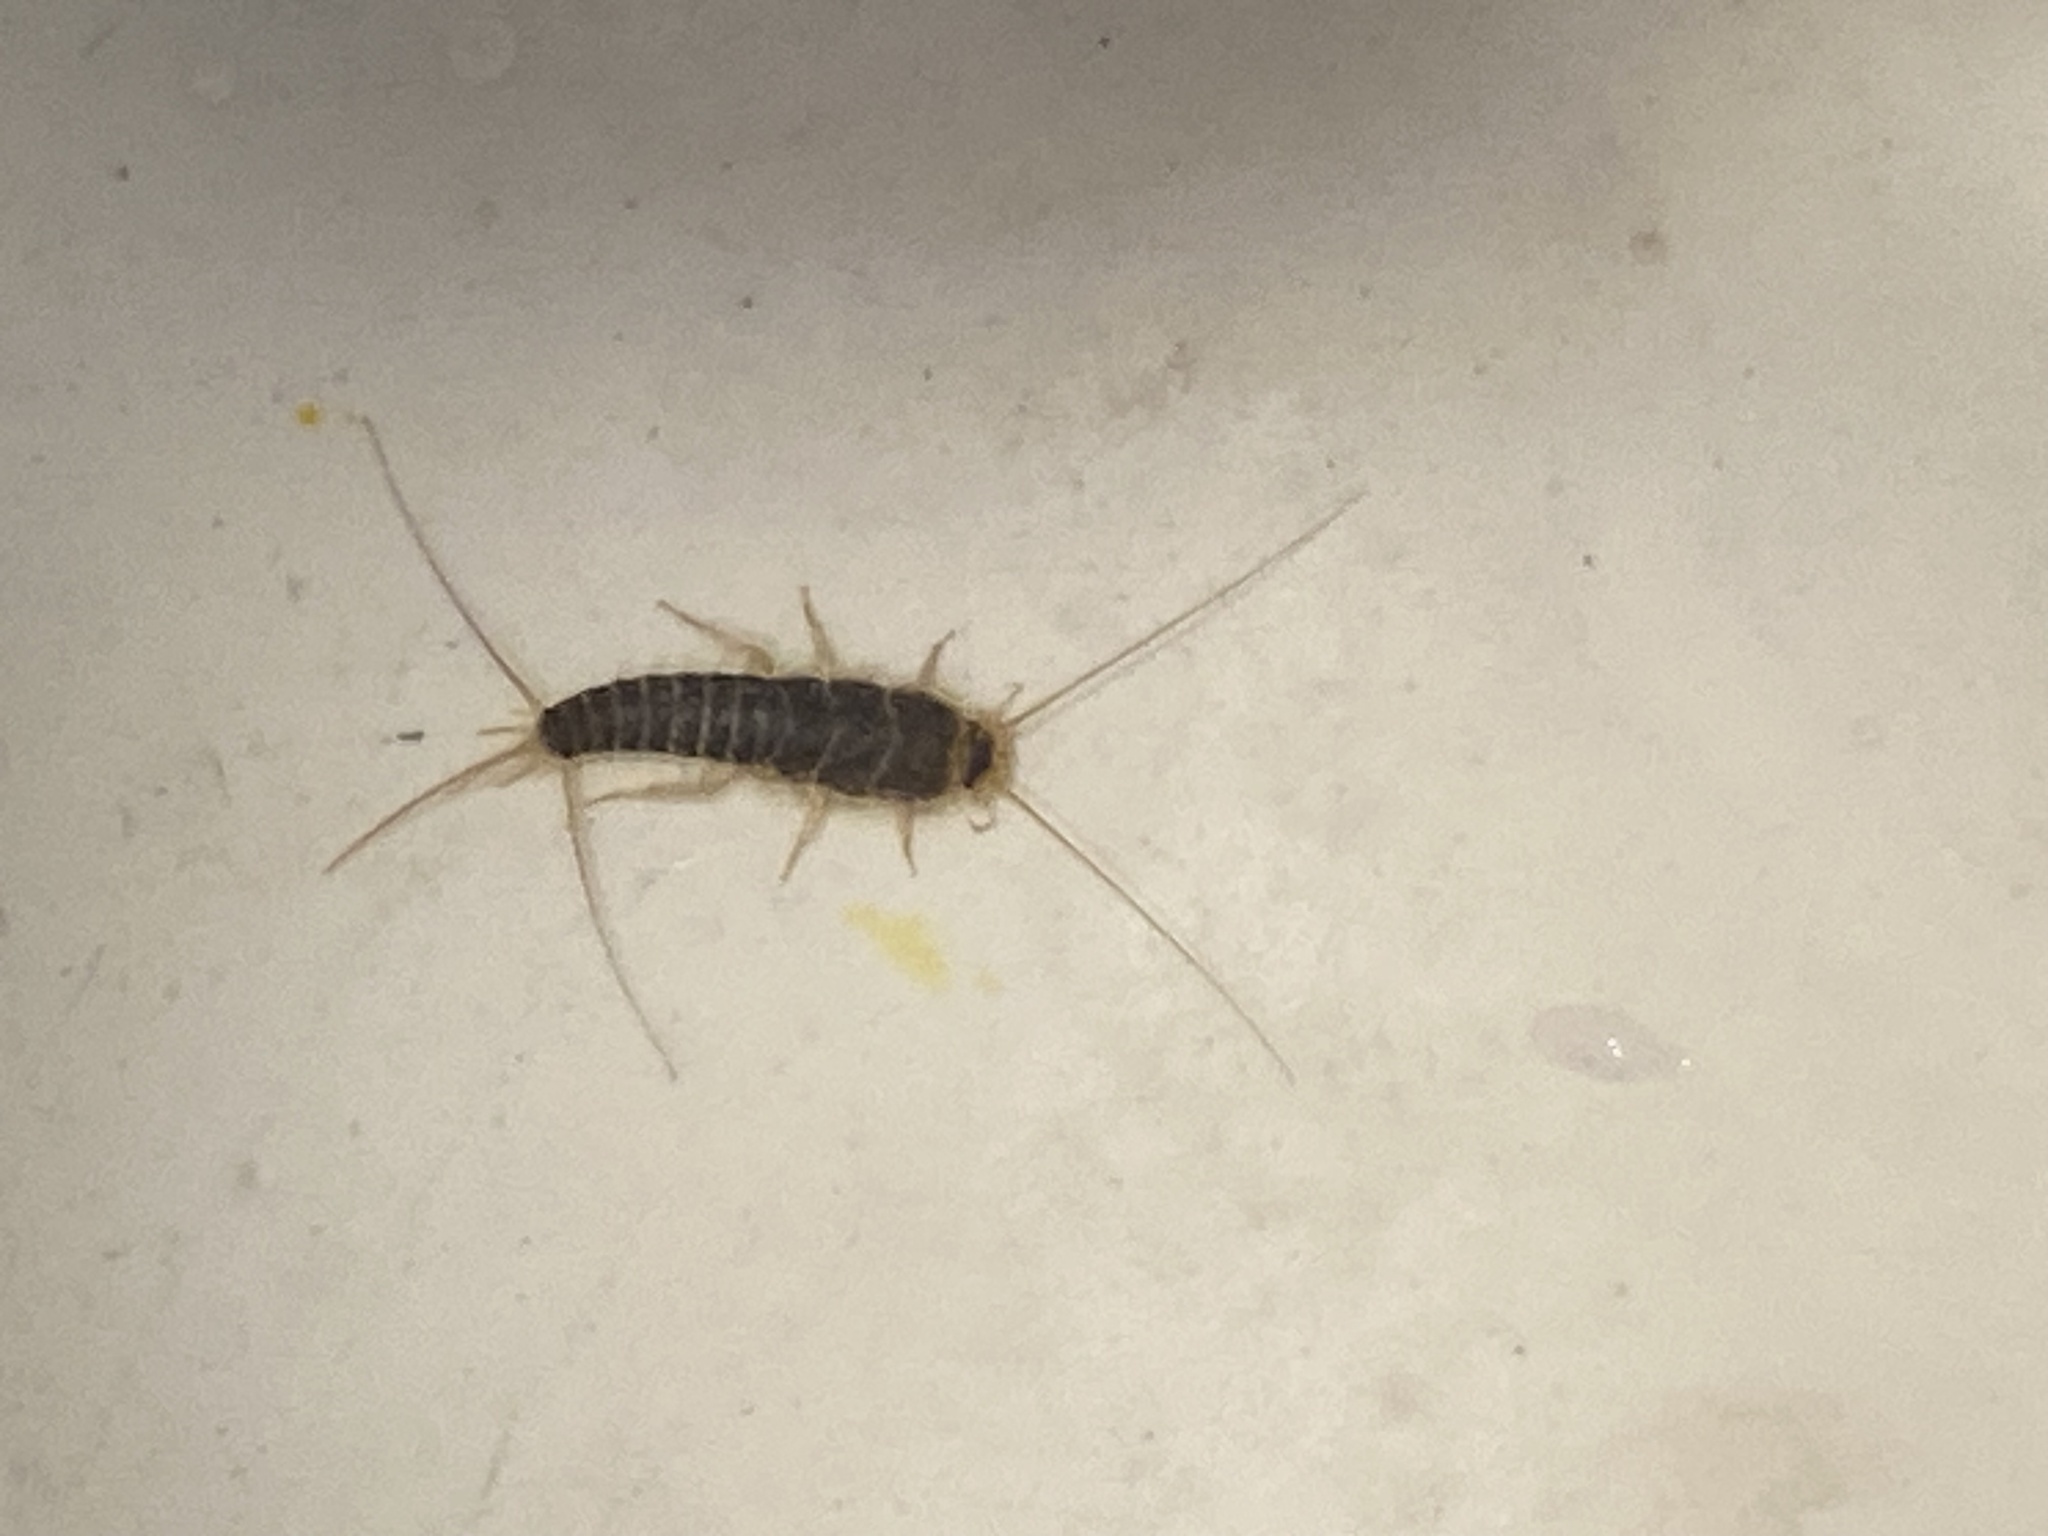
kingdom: Animalia
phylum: Arthropoda
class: Insecta
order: Zygentoma
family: Lepismatidae
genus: Ctenolepisma
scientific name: Ctenolepisma longicaudatum
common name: Silverfish
